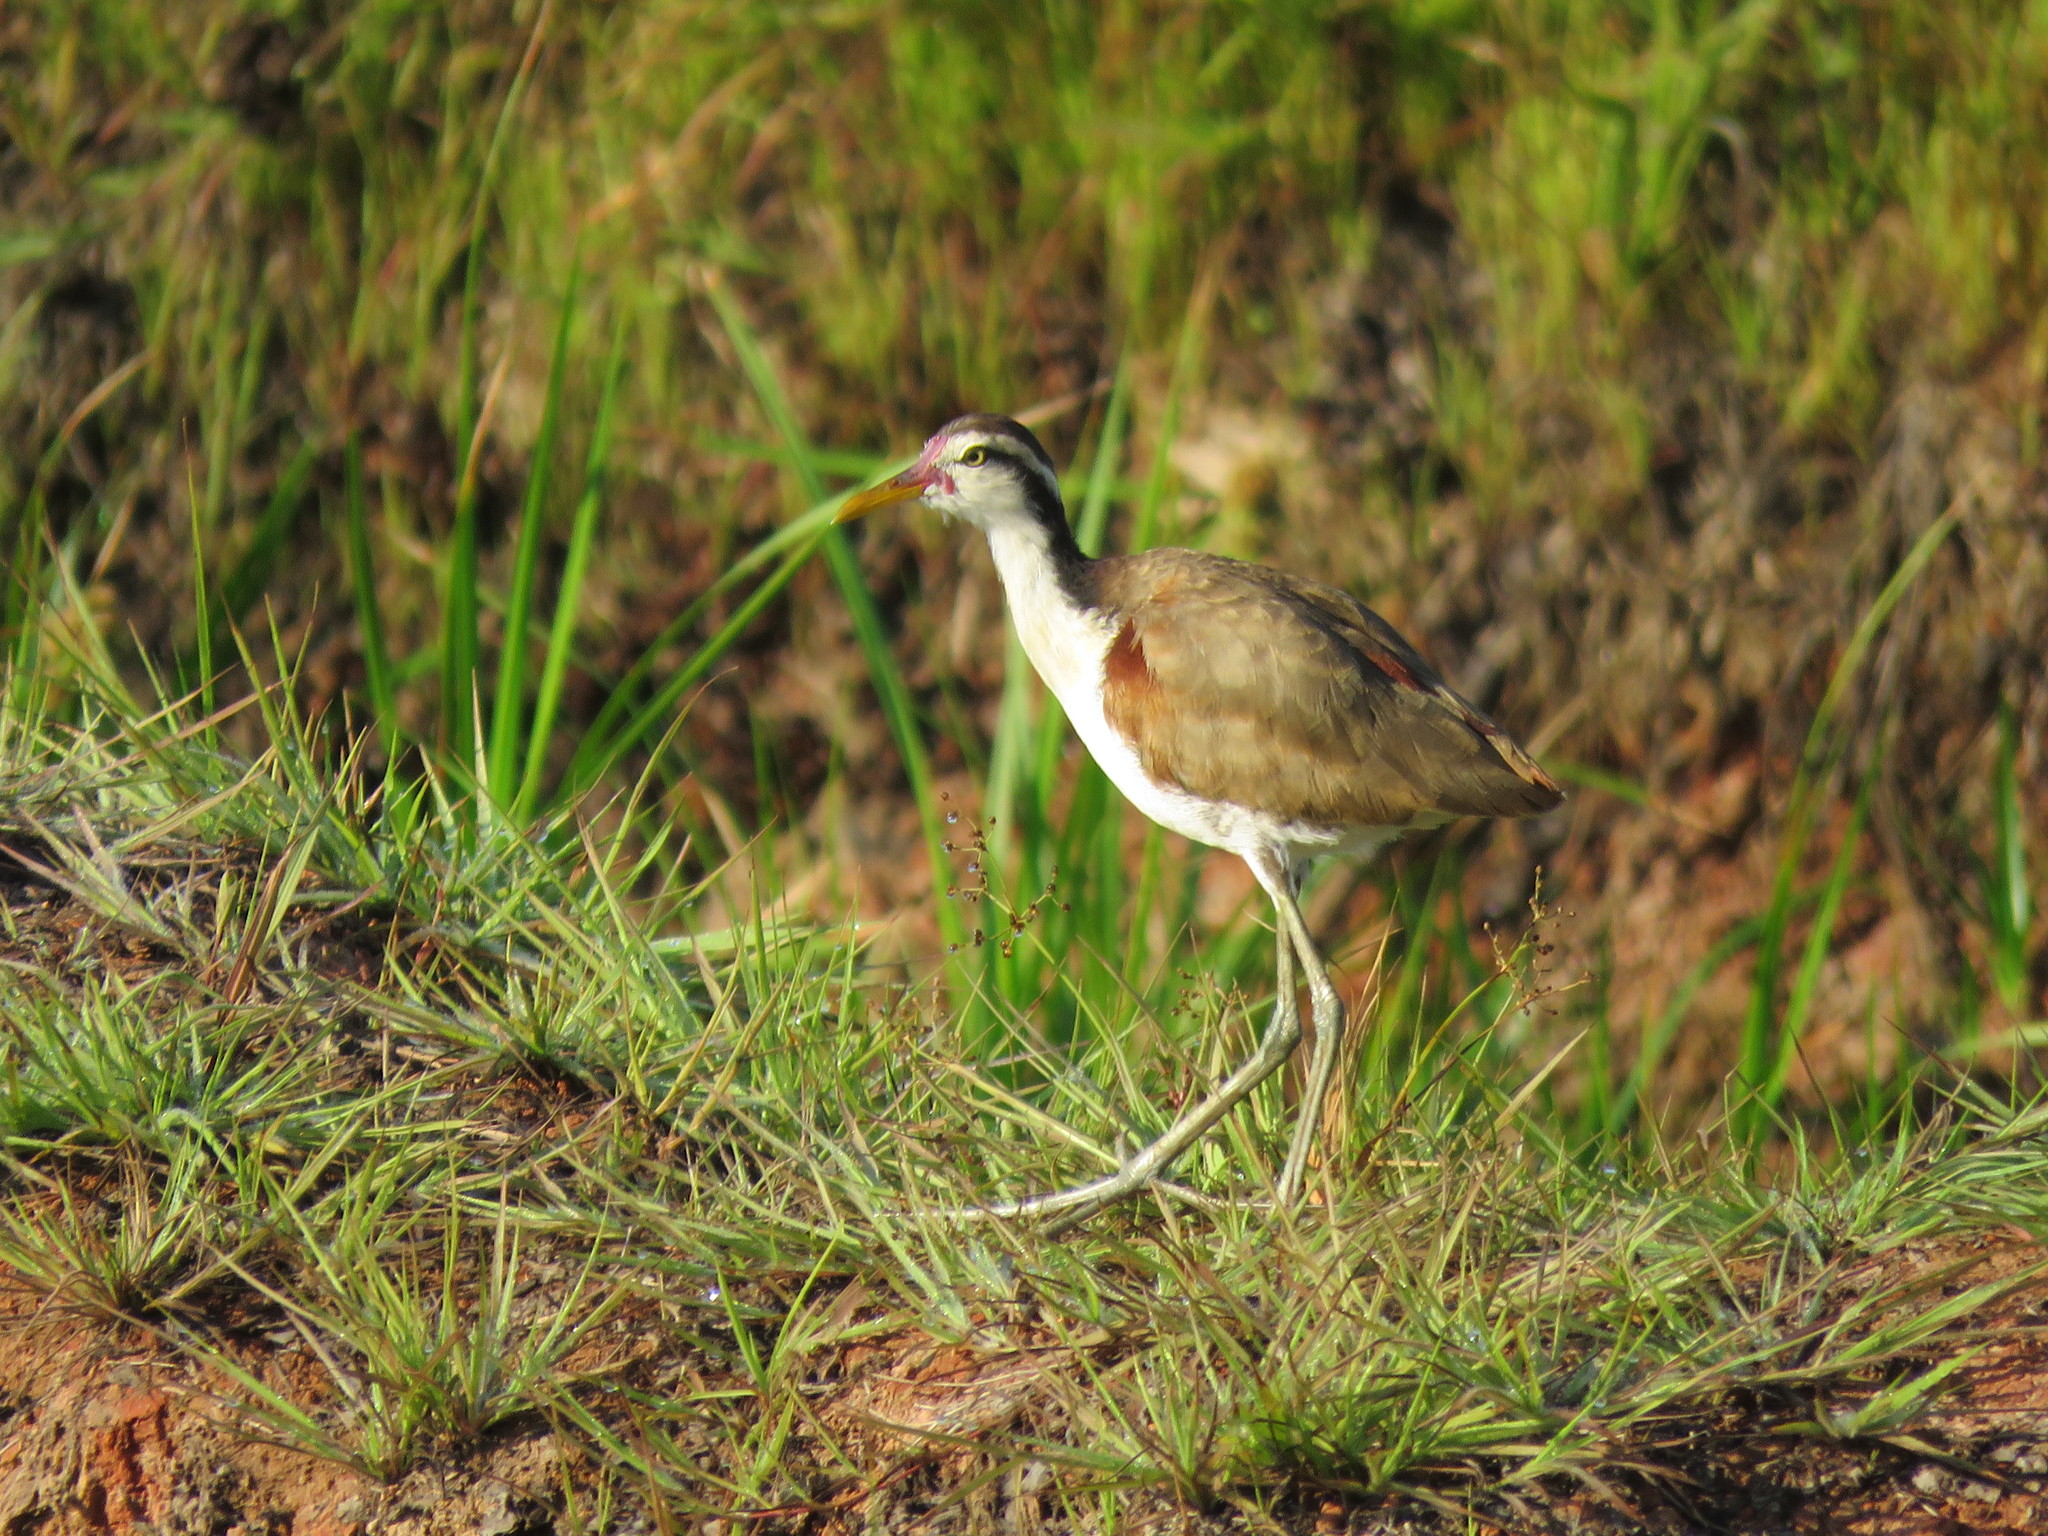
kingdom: Animalia
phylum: Chordata
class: Aves
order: Charadriiformes
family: Jacanidae
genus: Jacana
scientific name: Jacana jacana
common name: Wattled jacana
